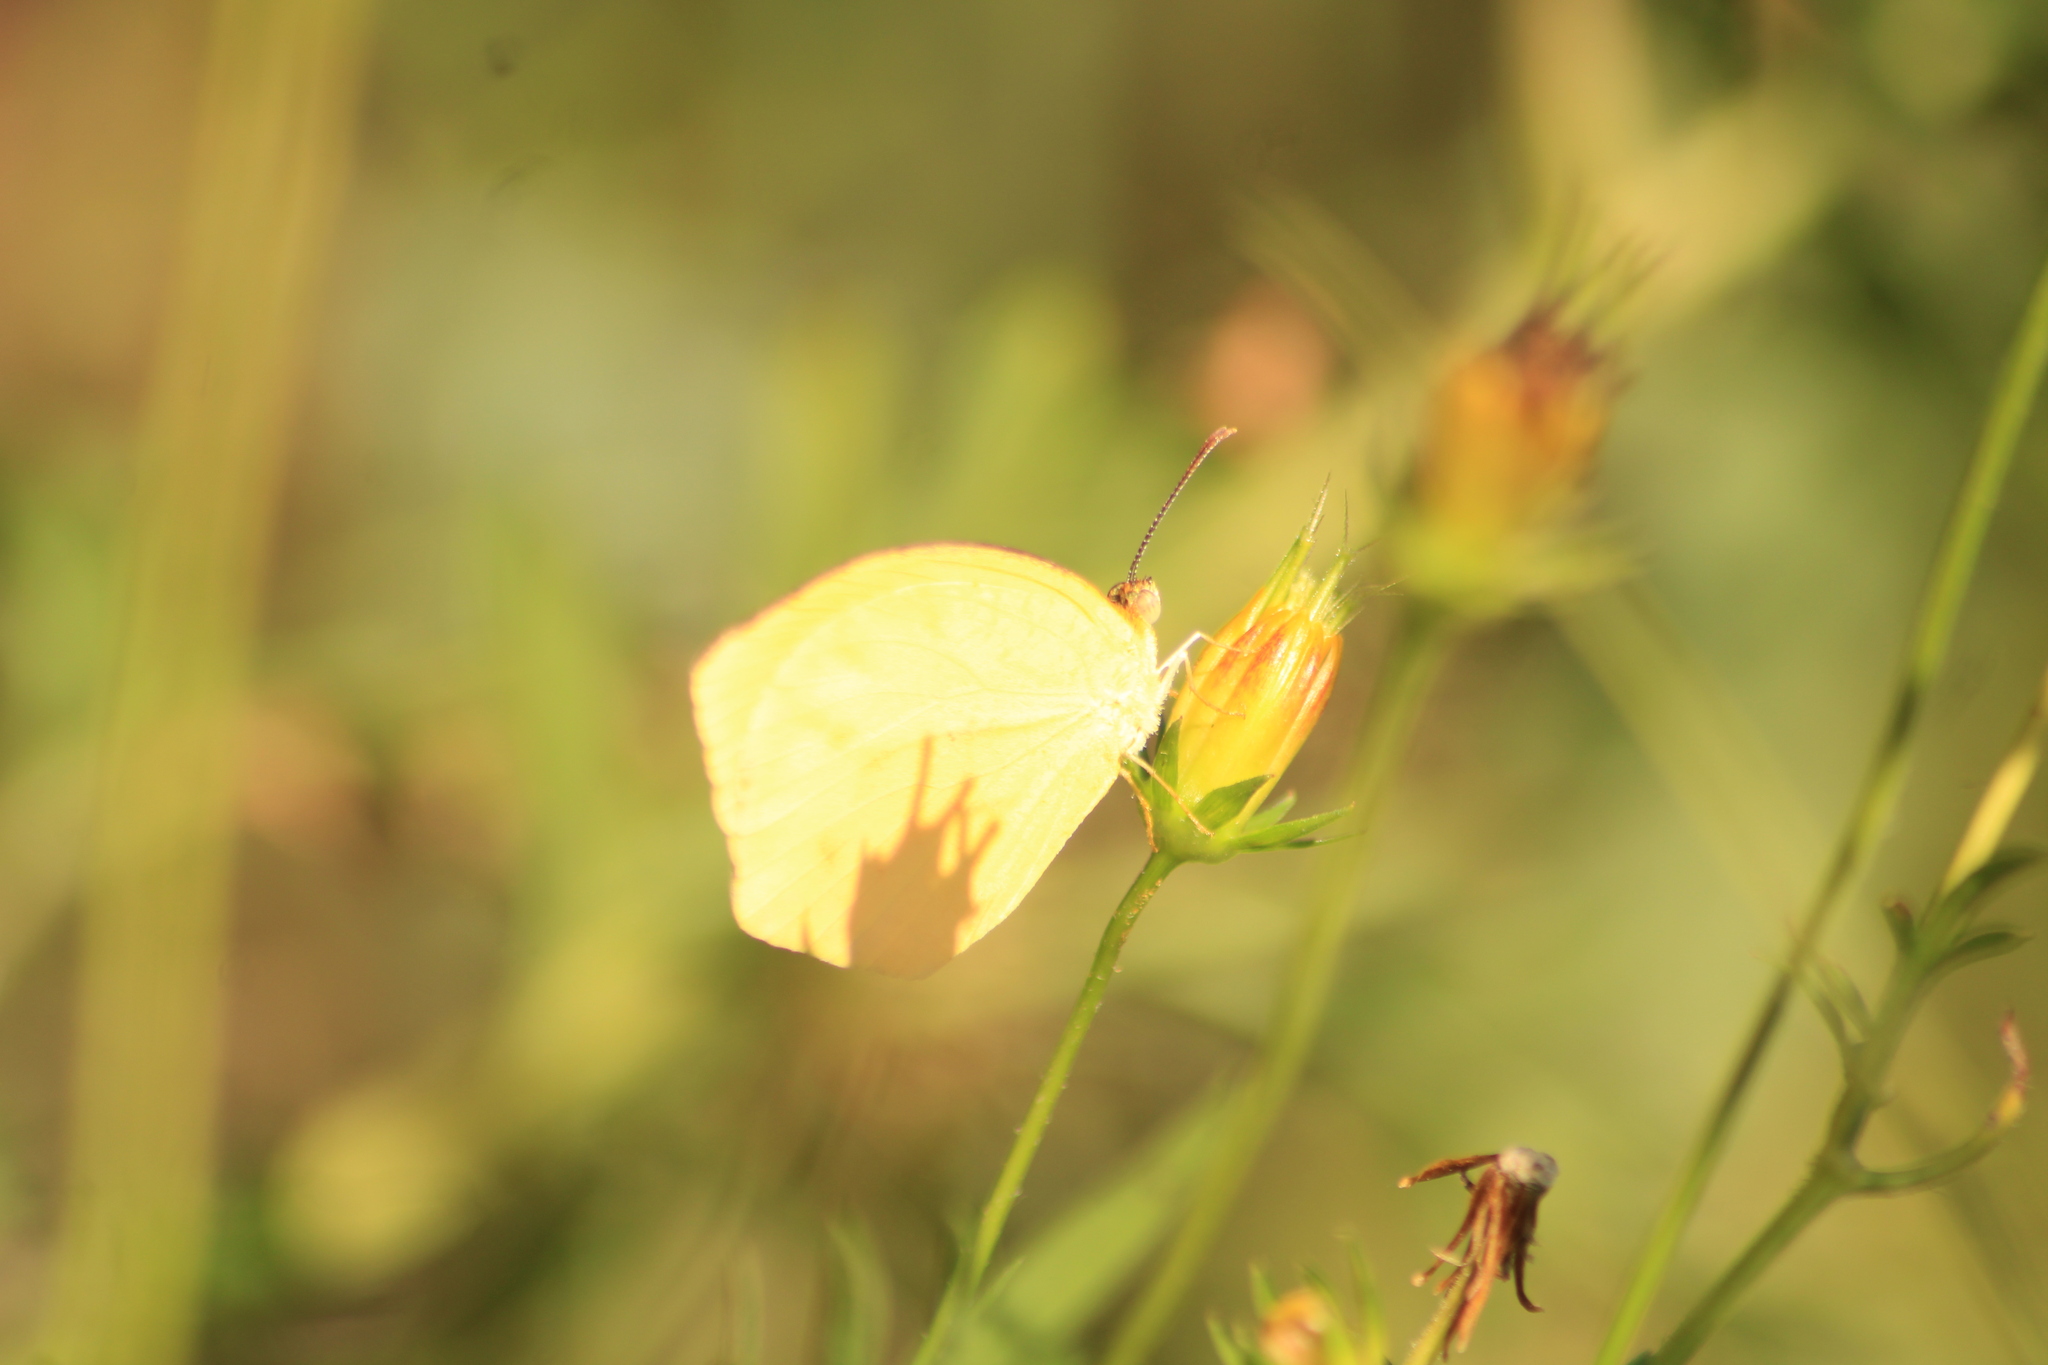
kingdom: Animalia
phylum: Arthropoda
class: Insecta
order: Lepidoptera
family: Pieridae
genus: Pyrisitia
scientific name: Pyrisitia proterpia
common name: Tailed orange
